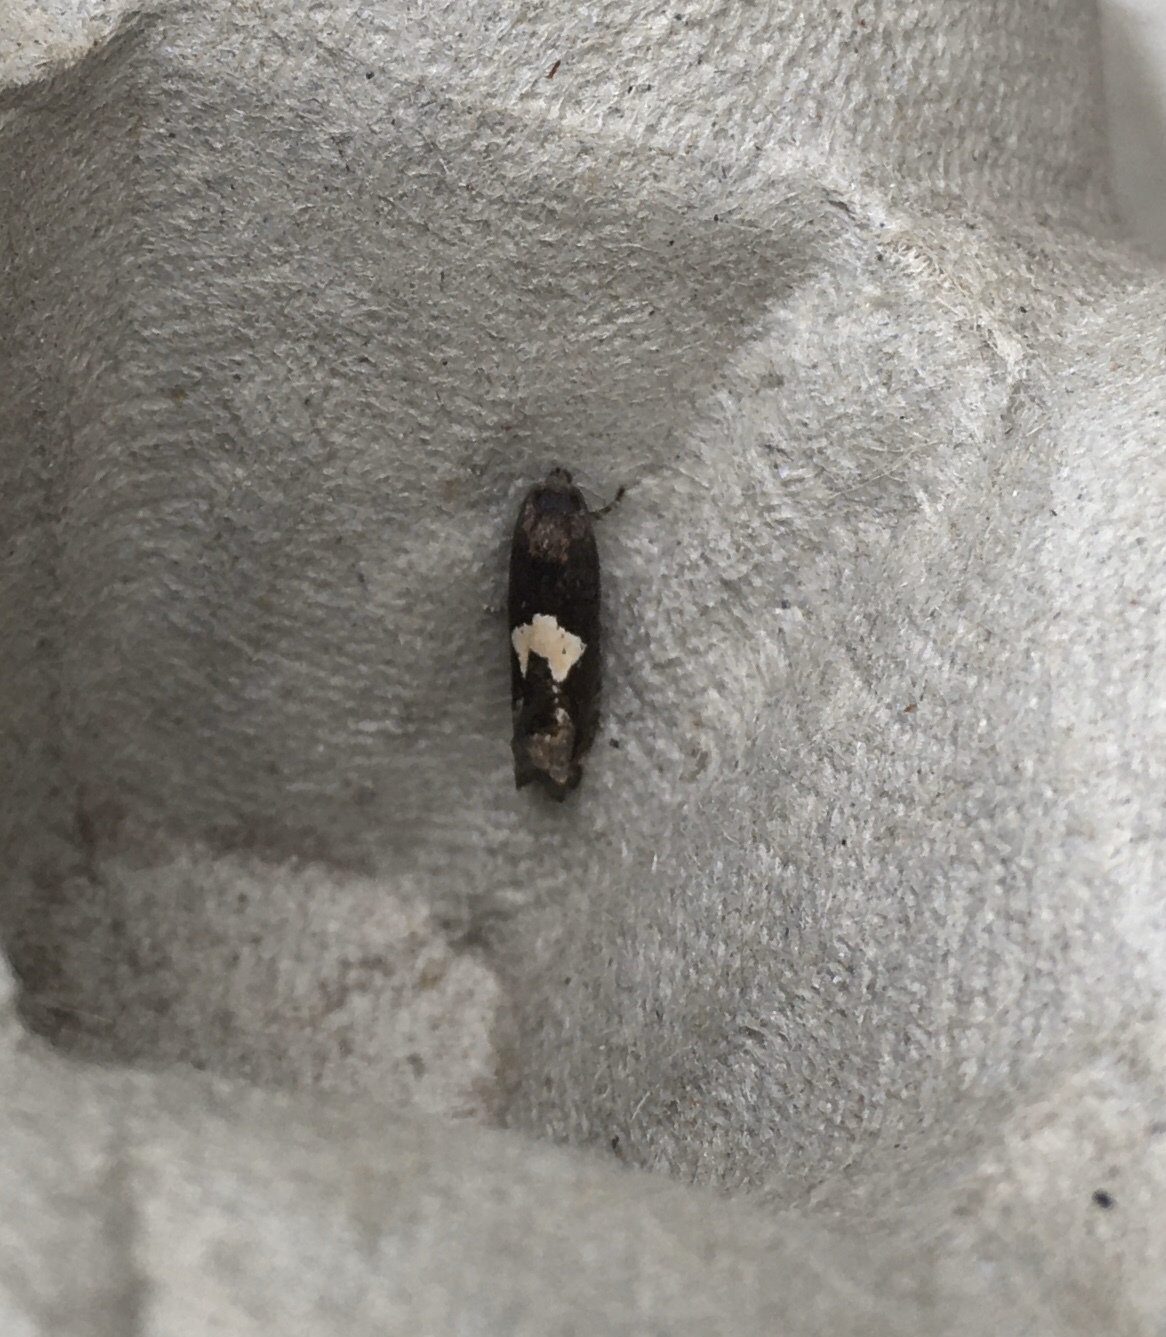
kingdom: Animalia
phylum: Arthropoda
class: Insecta
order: Lepidoptera
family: Tortricidae
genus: Epiblema
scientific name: Epiblema otiosana
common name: Bidens borer moth
